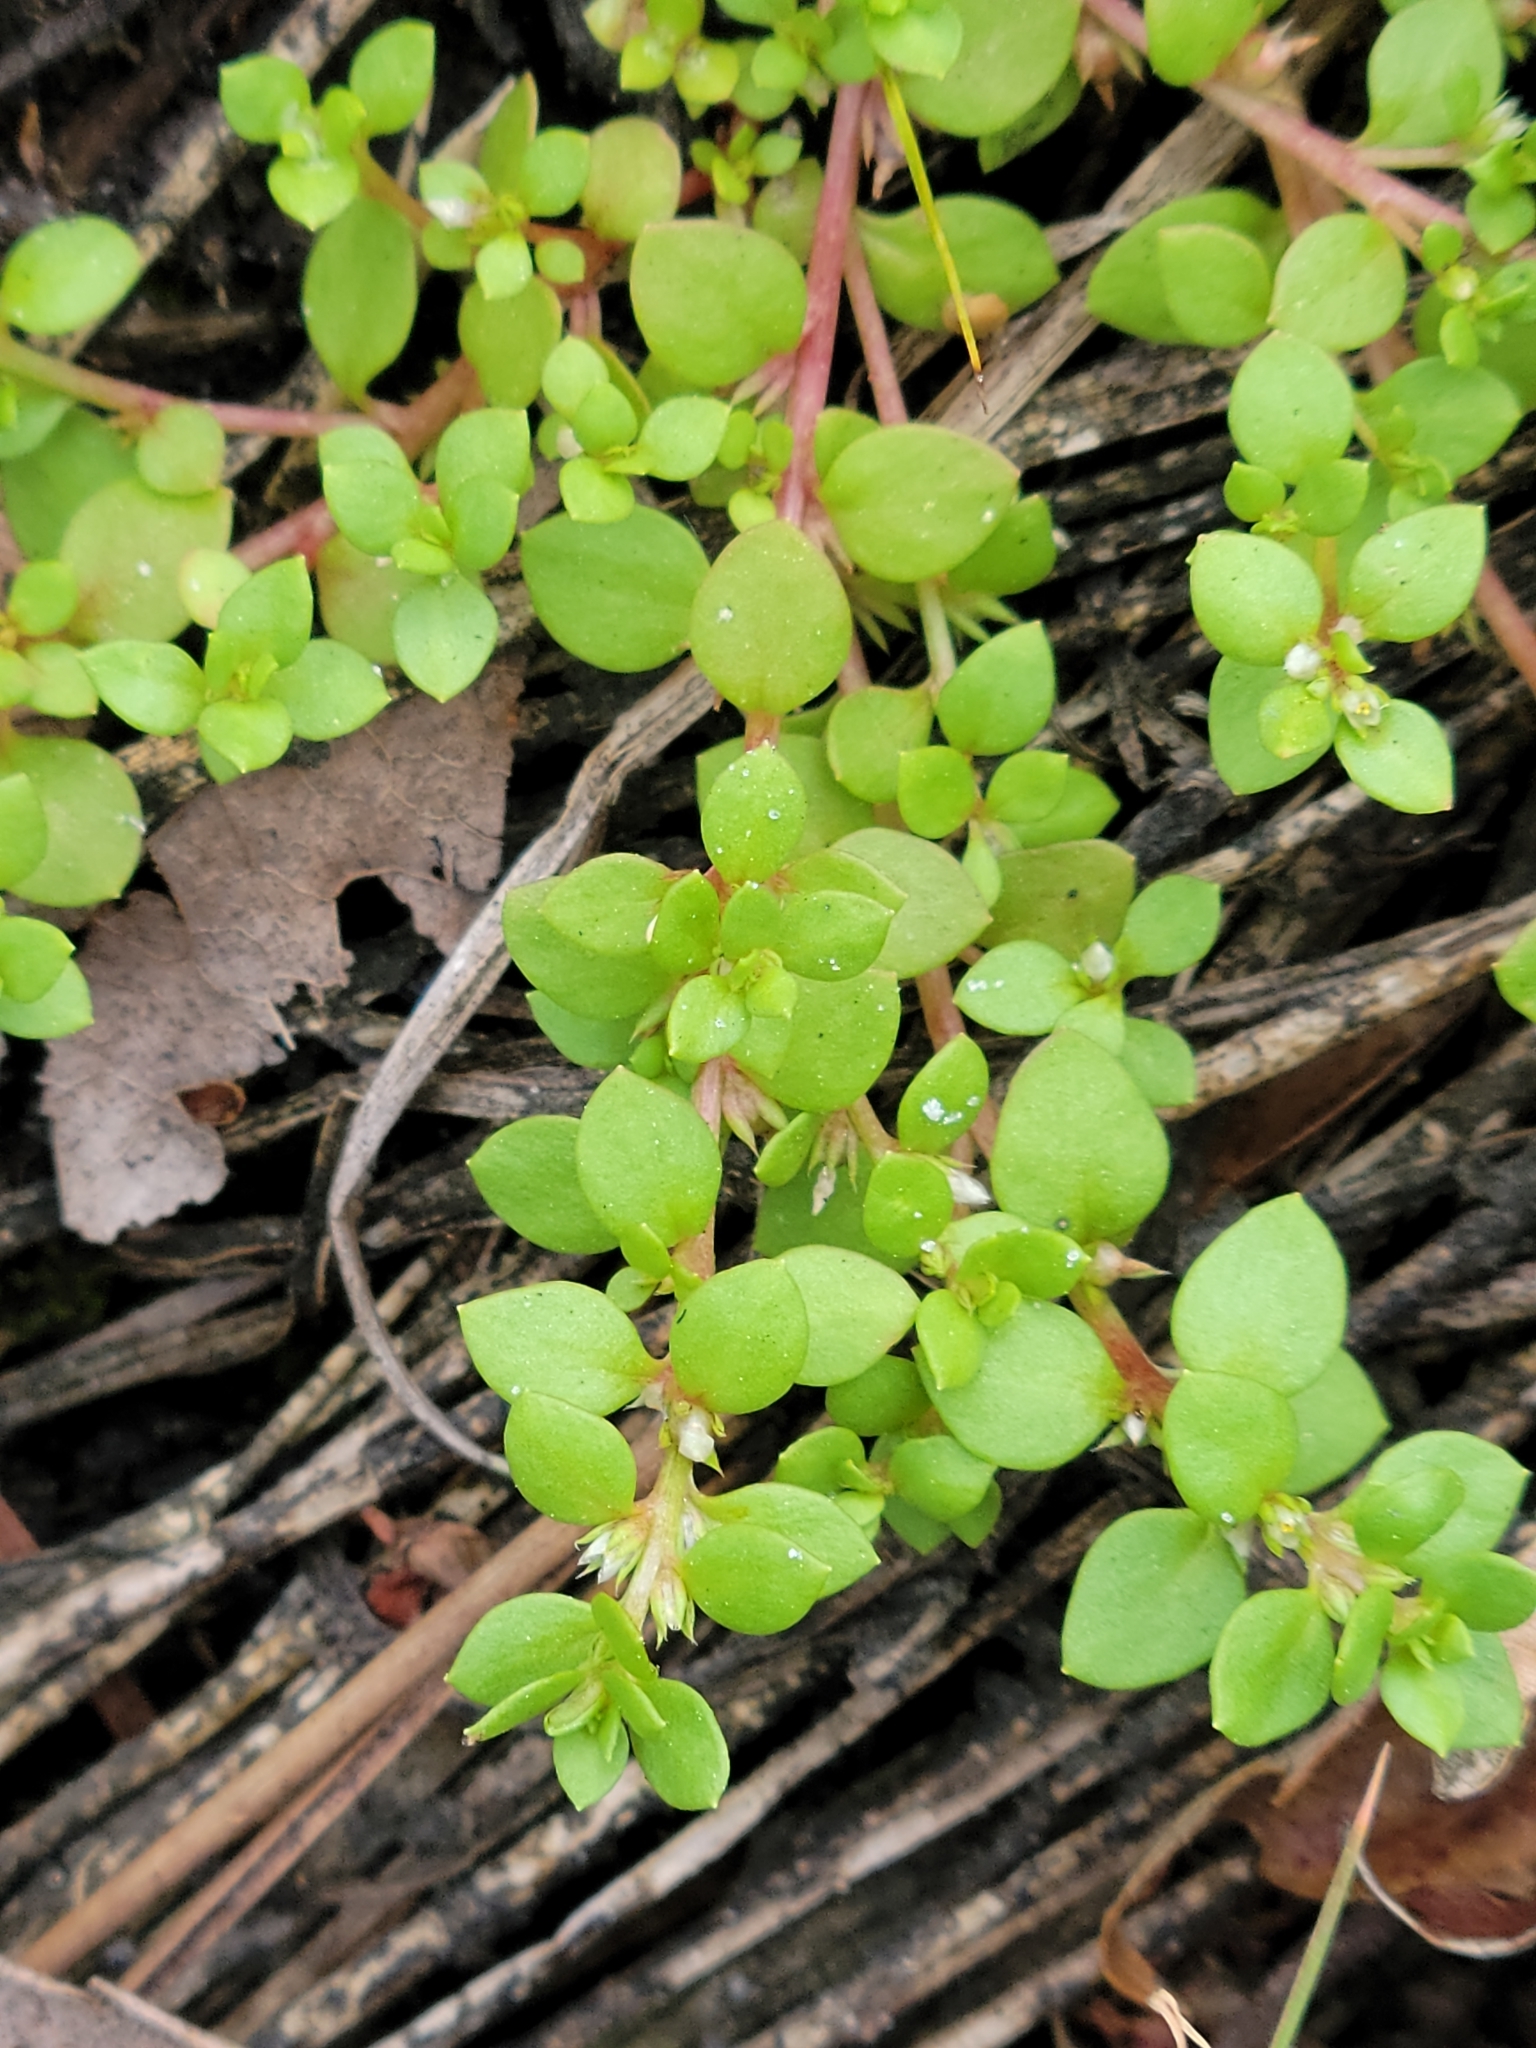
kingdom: Plantae
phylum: Tracheophyta
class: Magnoliopsida
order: Ericales
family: Primulaceae
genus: Lysimachia
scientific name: Lysimachia minima
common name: Chaffweed
